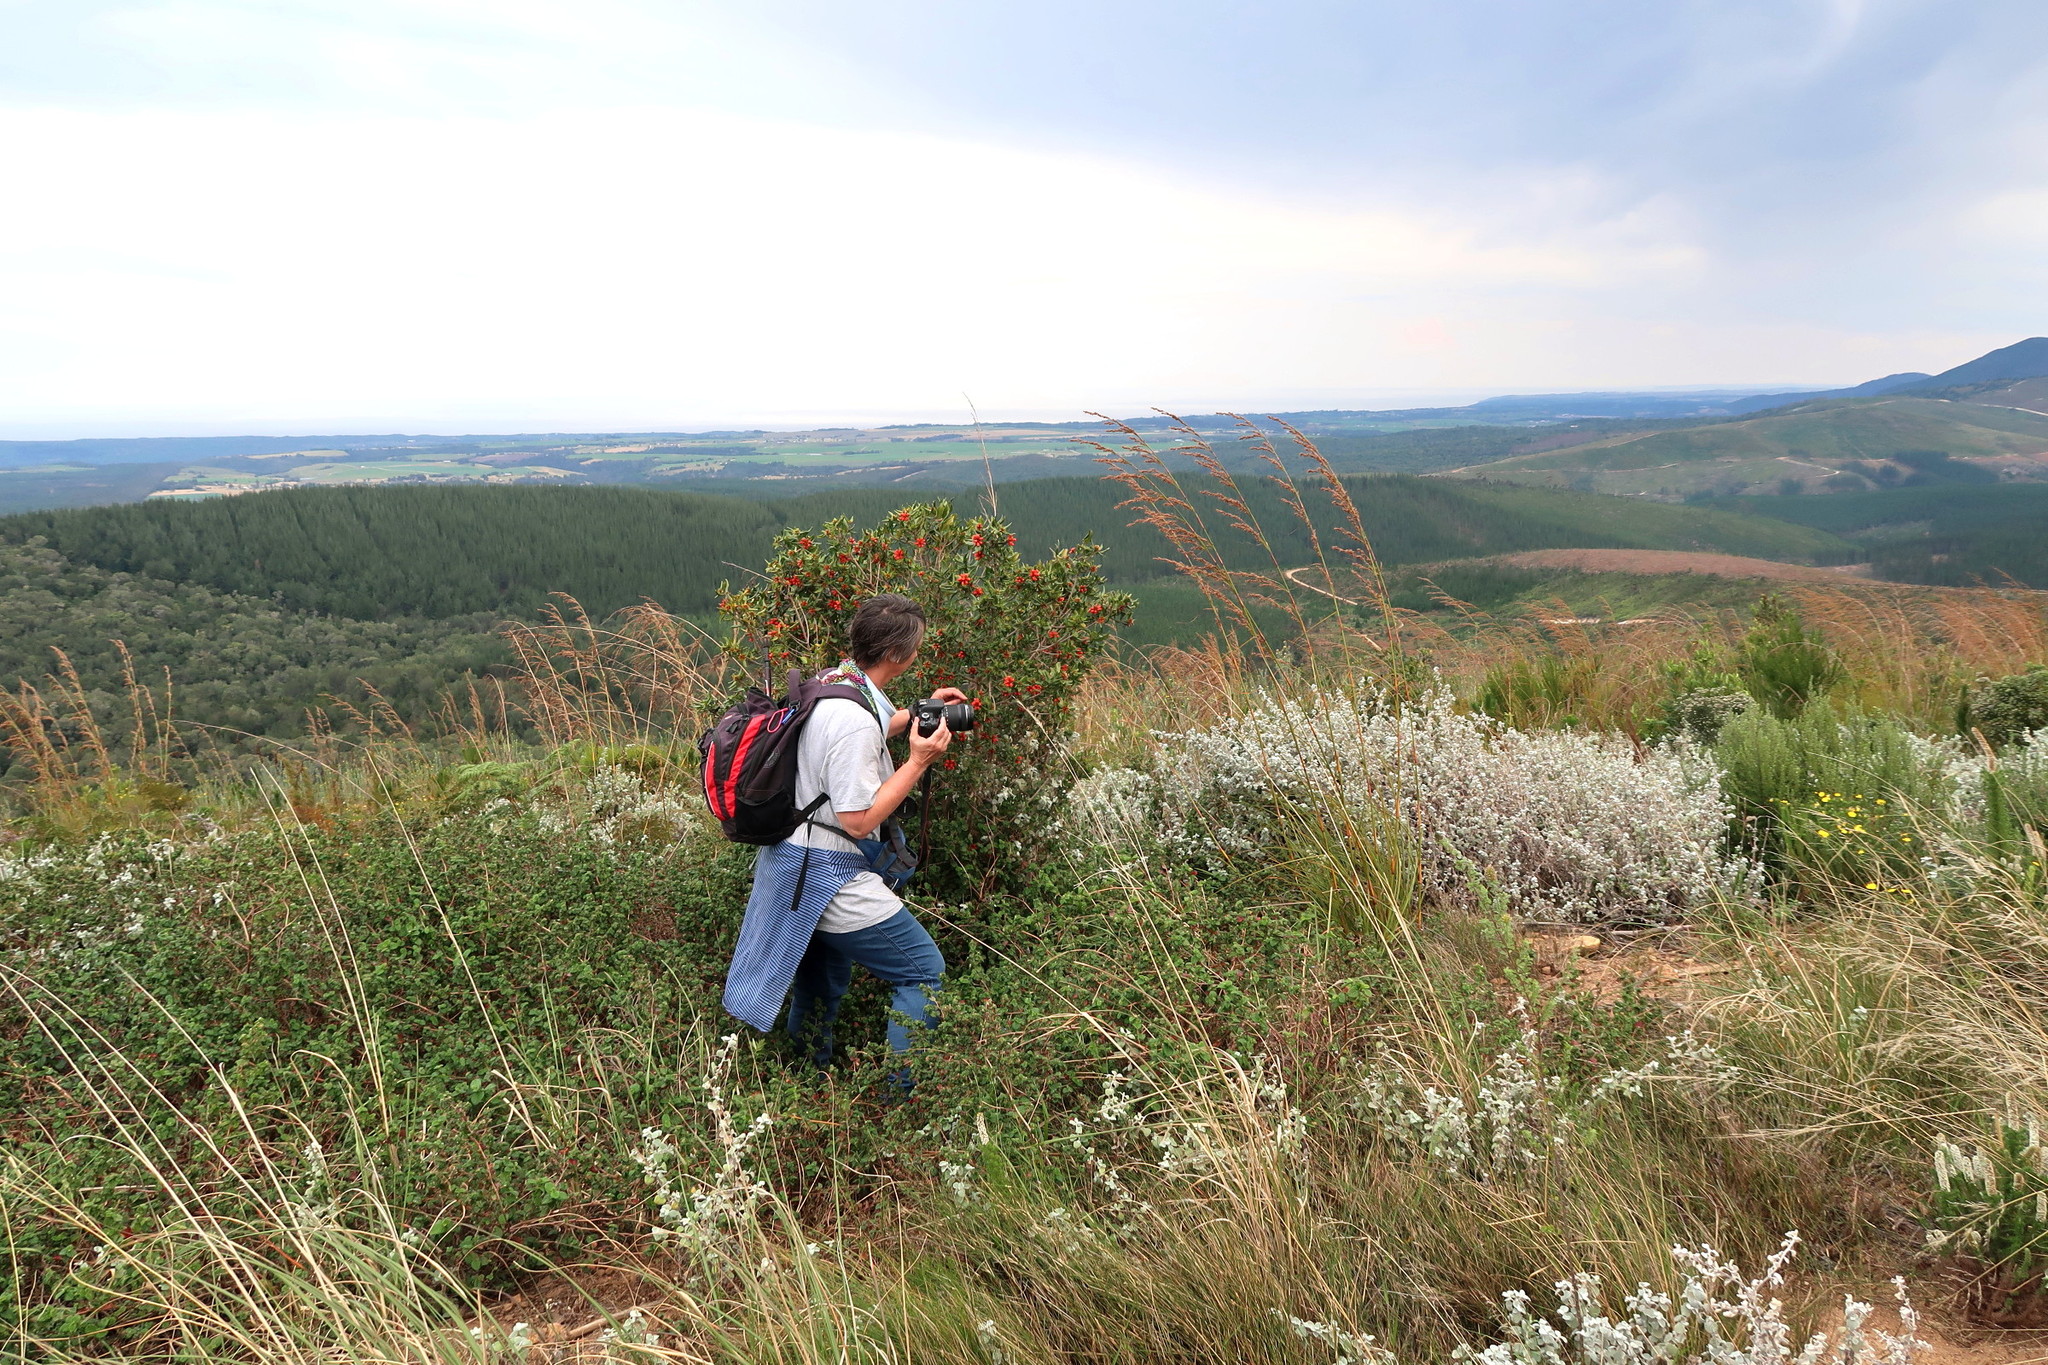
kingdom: Plantae
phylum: Tracheophyta
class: Magnoliopsida
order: Gentianales
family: Rubiaceae
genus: Burchellia
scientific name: Burchellia bubalina
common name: Wild pomegranate
